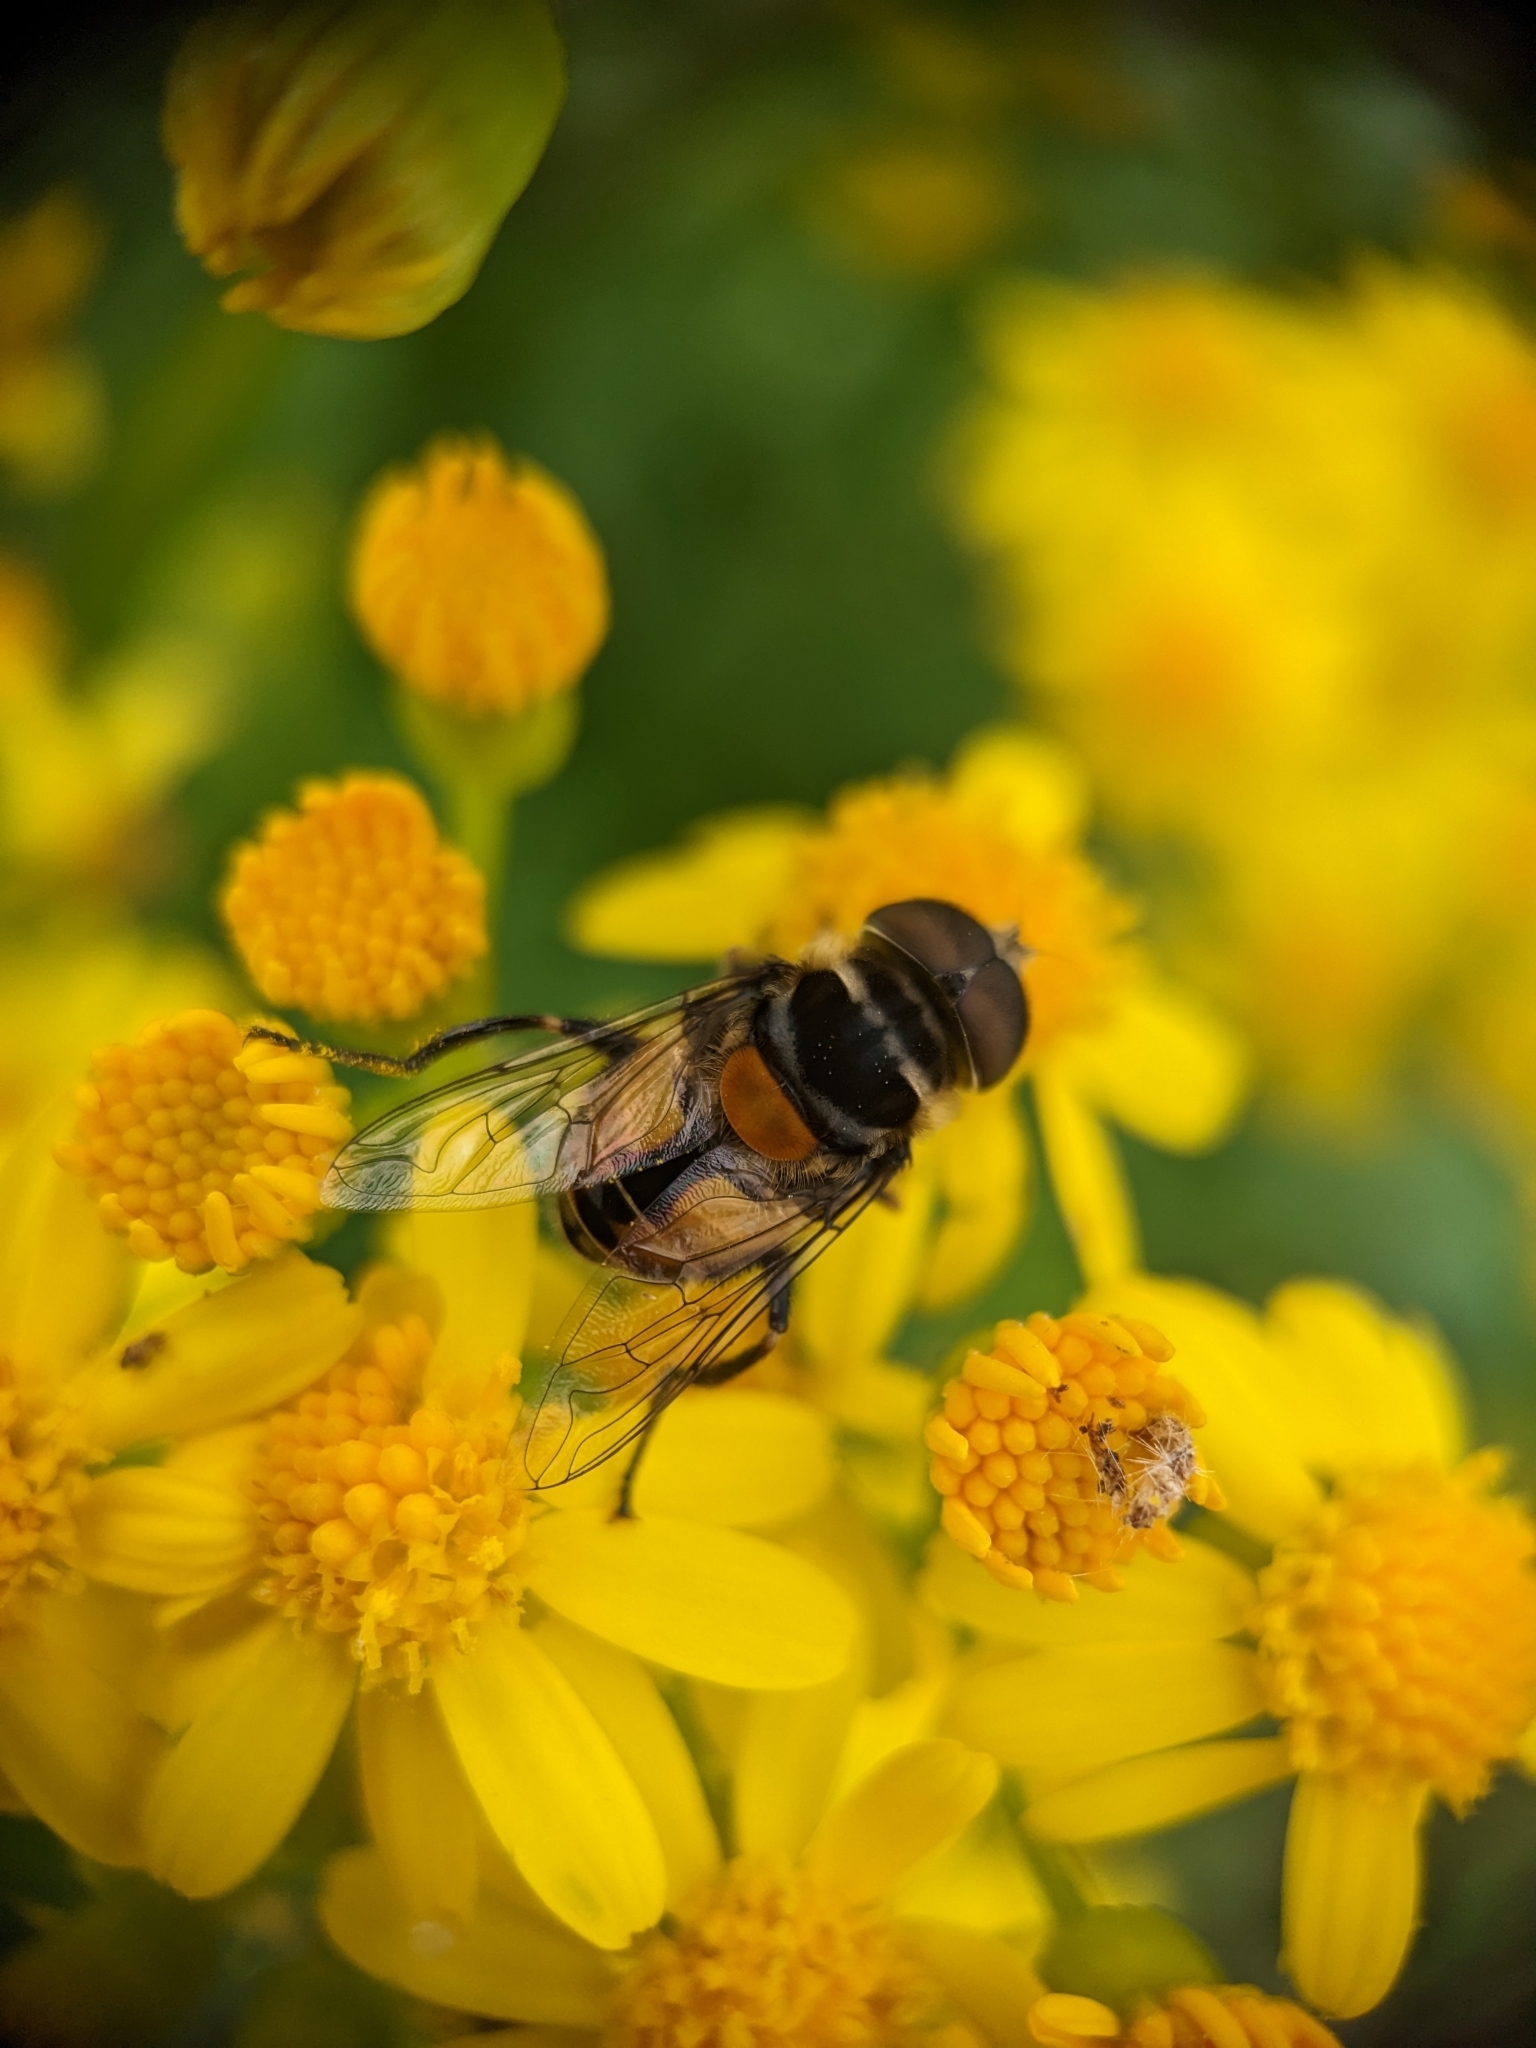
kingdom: Animalia
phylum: Arthropoda
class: Insecta
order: Diptera
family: Syrphidae
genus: Palpada
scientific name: Palpada agrorum
